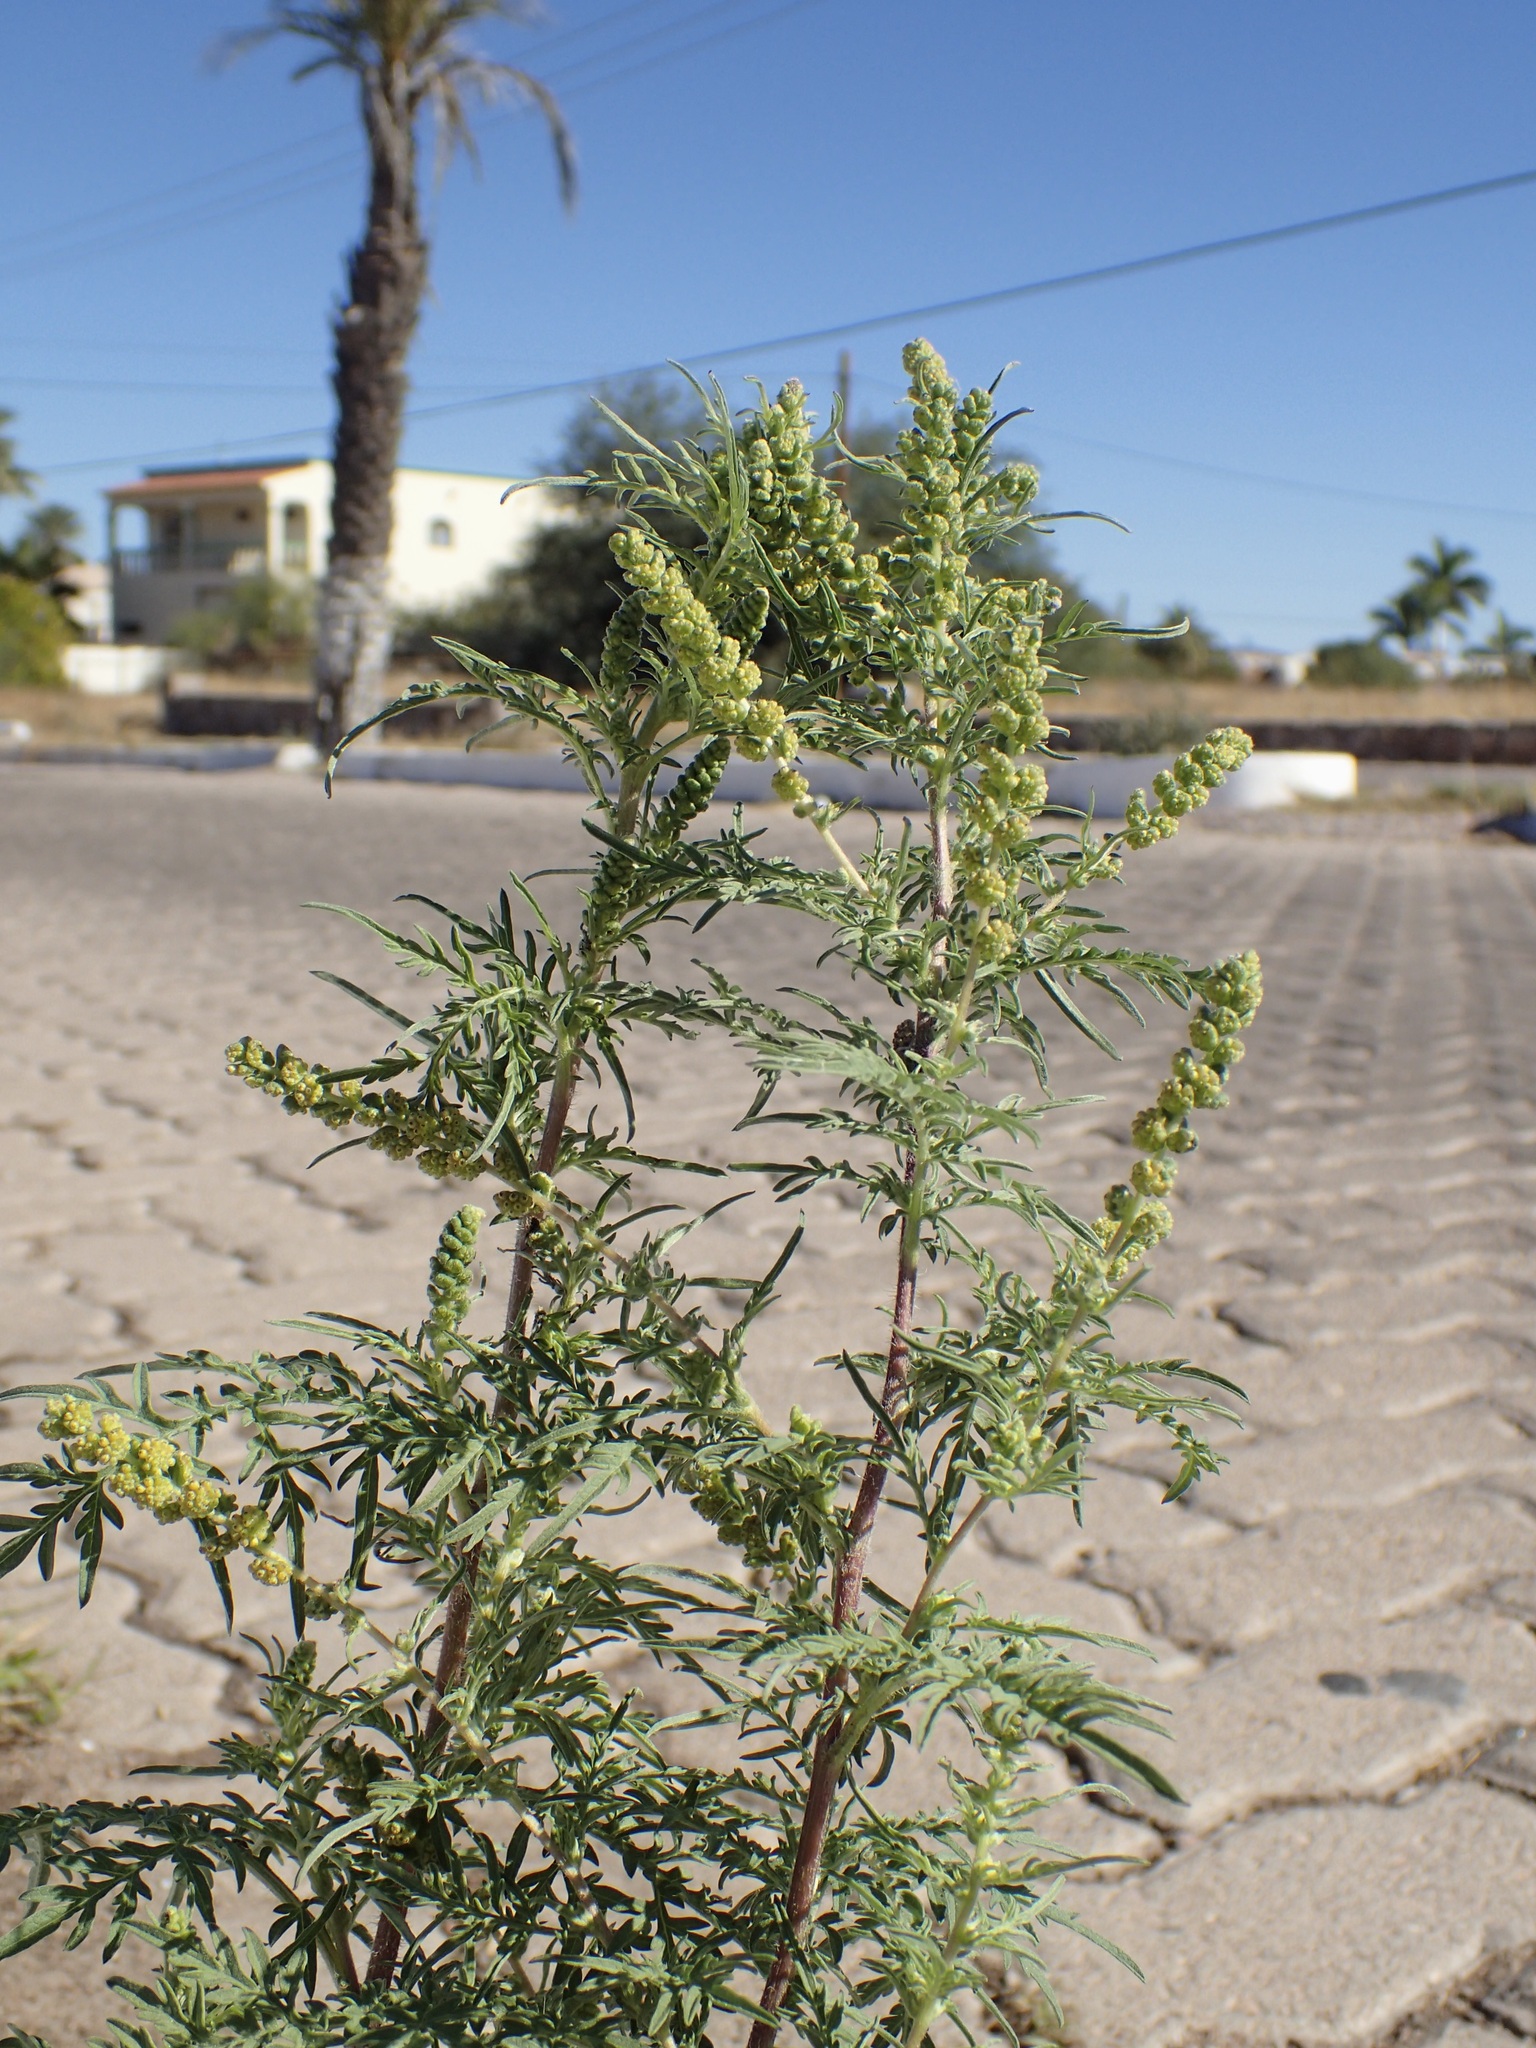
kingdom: Plantae
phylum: Tracheophyta
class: Magnoliopsida
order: Asterales
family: Asteraceae
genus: Ambrosia
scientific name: Ambrosia confertiflora
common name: Bur ragweed
